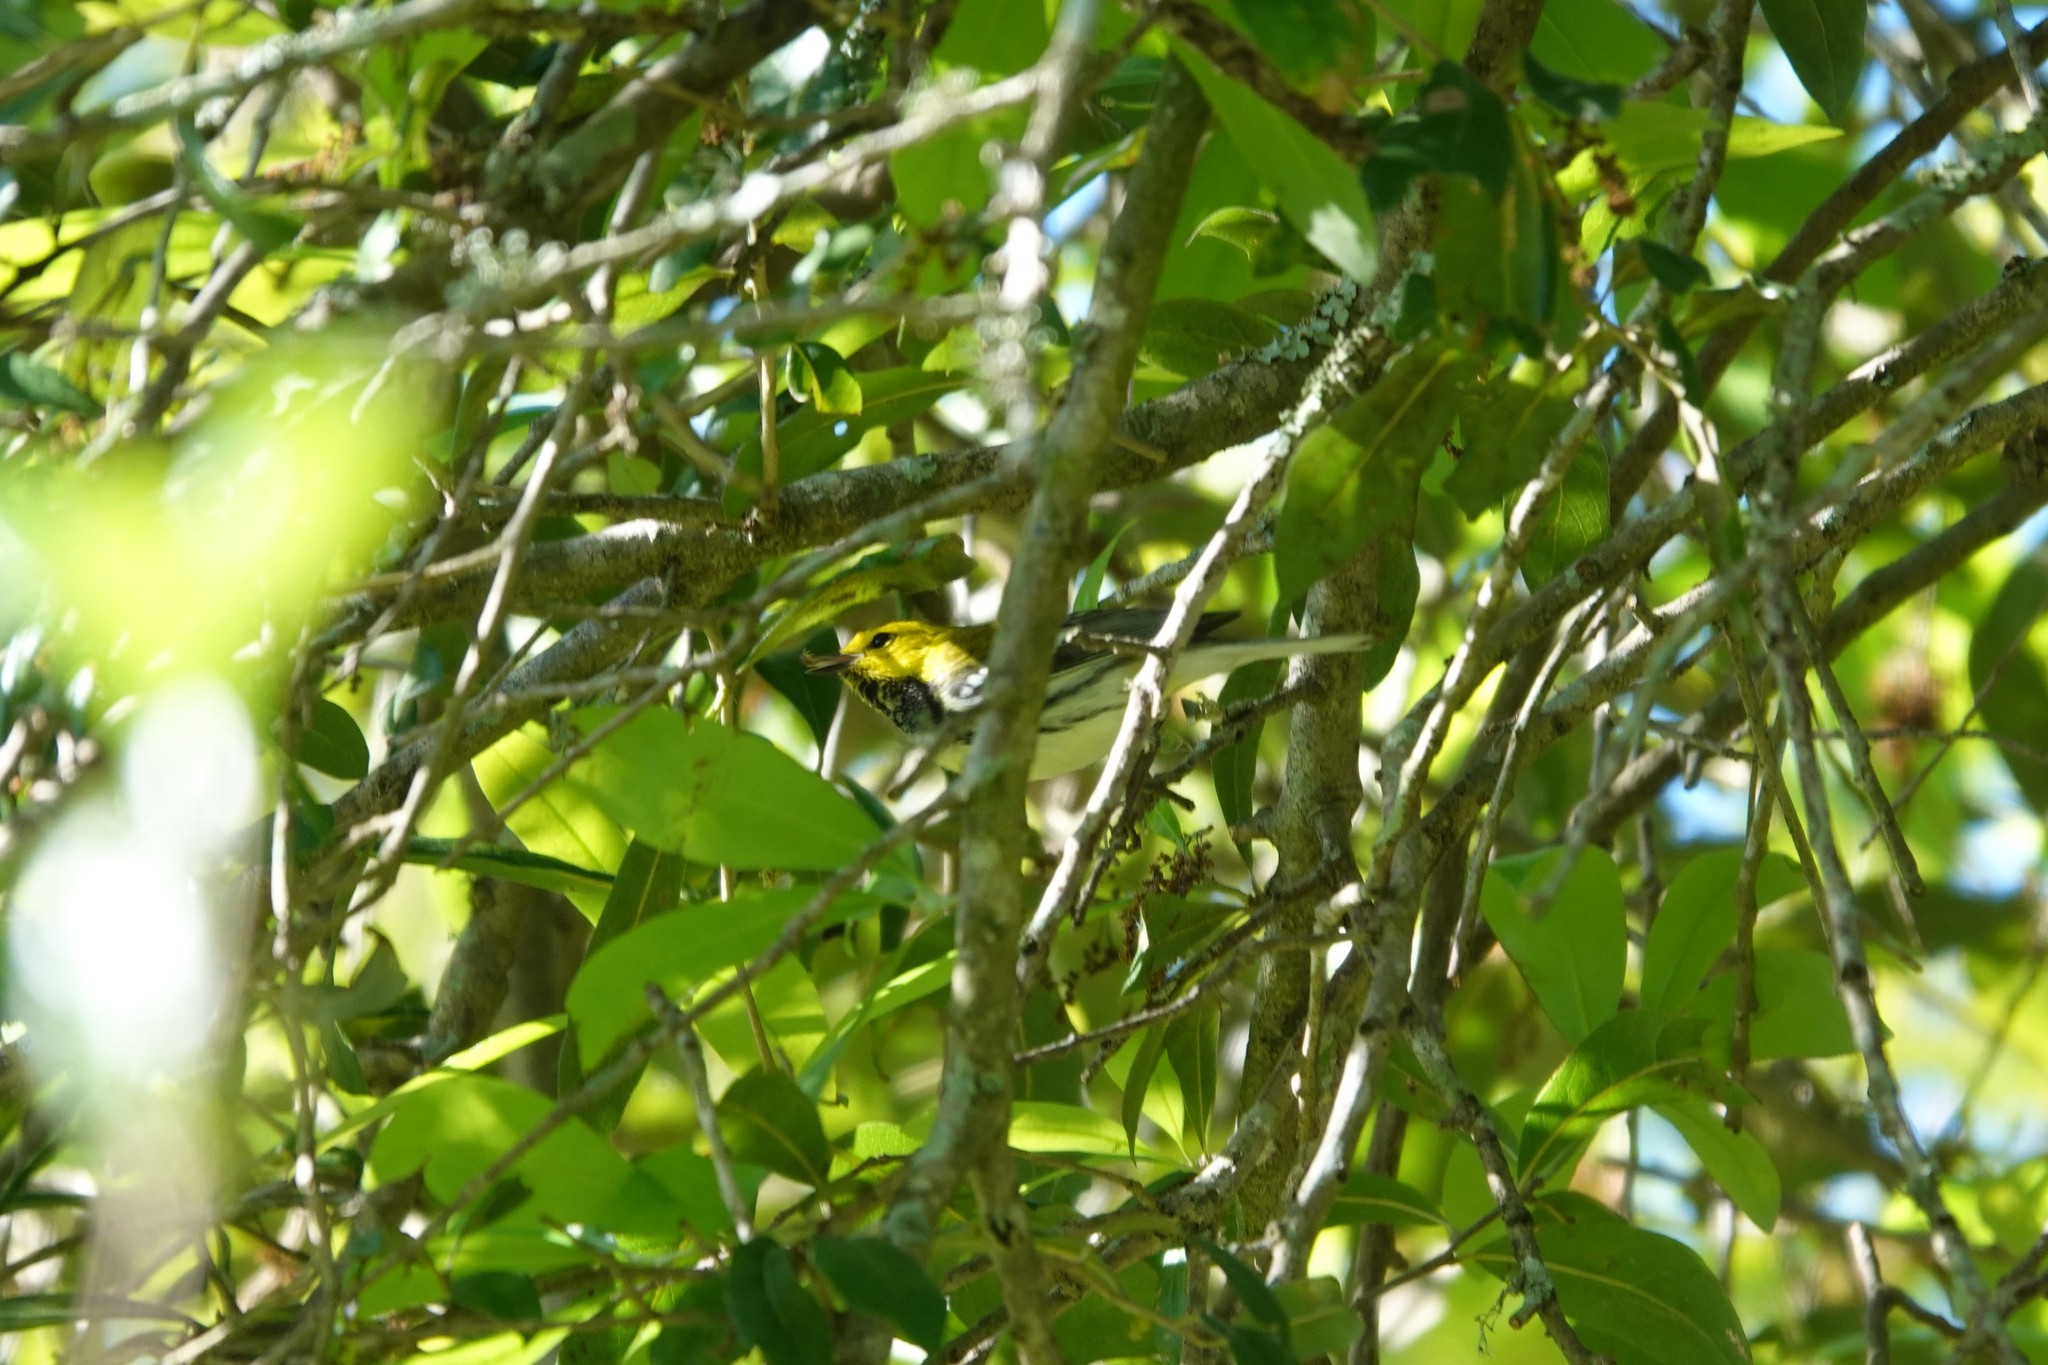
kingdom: Animalia
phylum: Chordata
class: Aves
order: Passeriformes
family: Parulidae
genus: Setophaga
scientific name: Setophaga virens
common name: Black-throated green warbler
